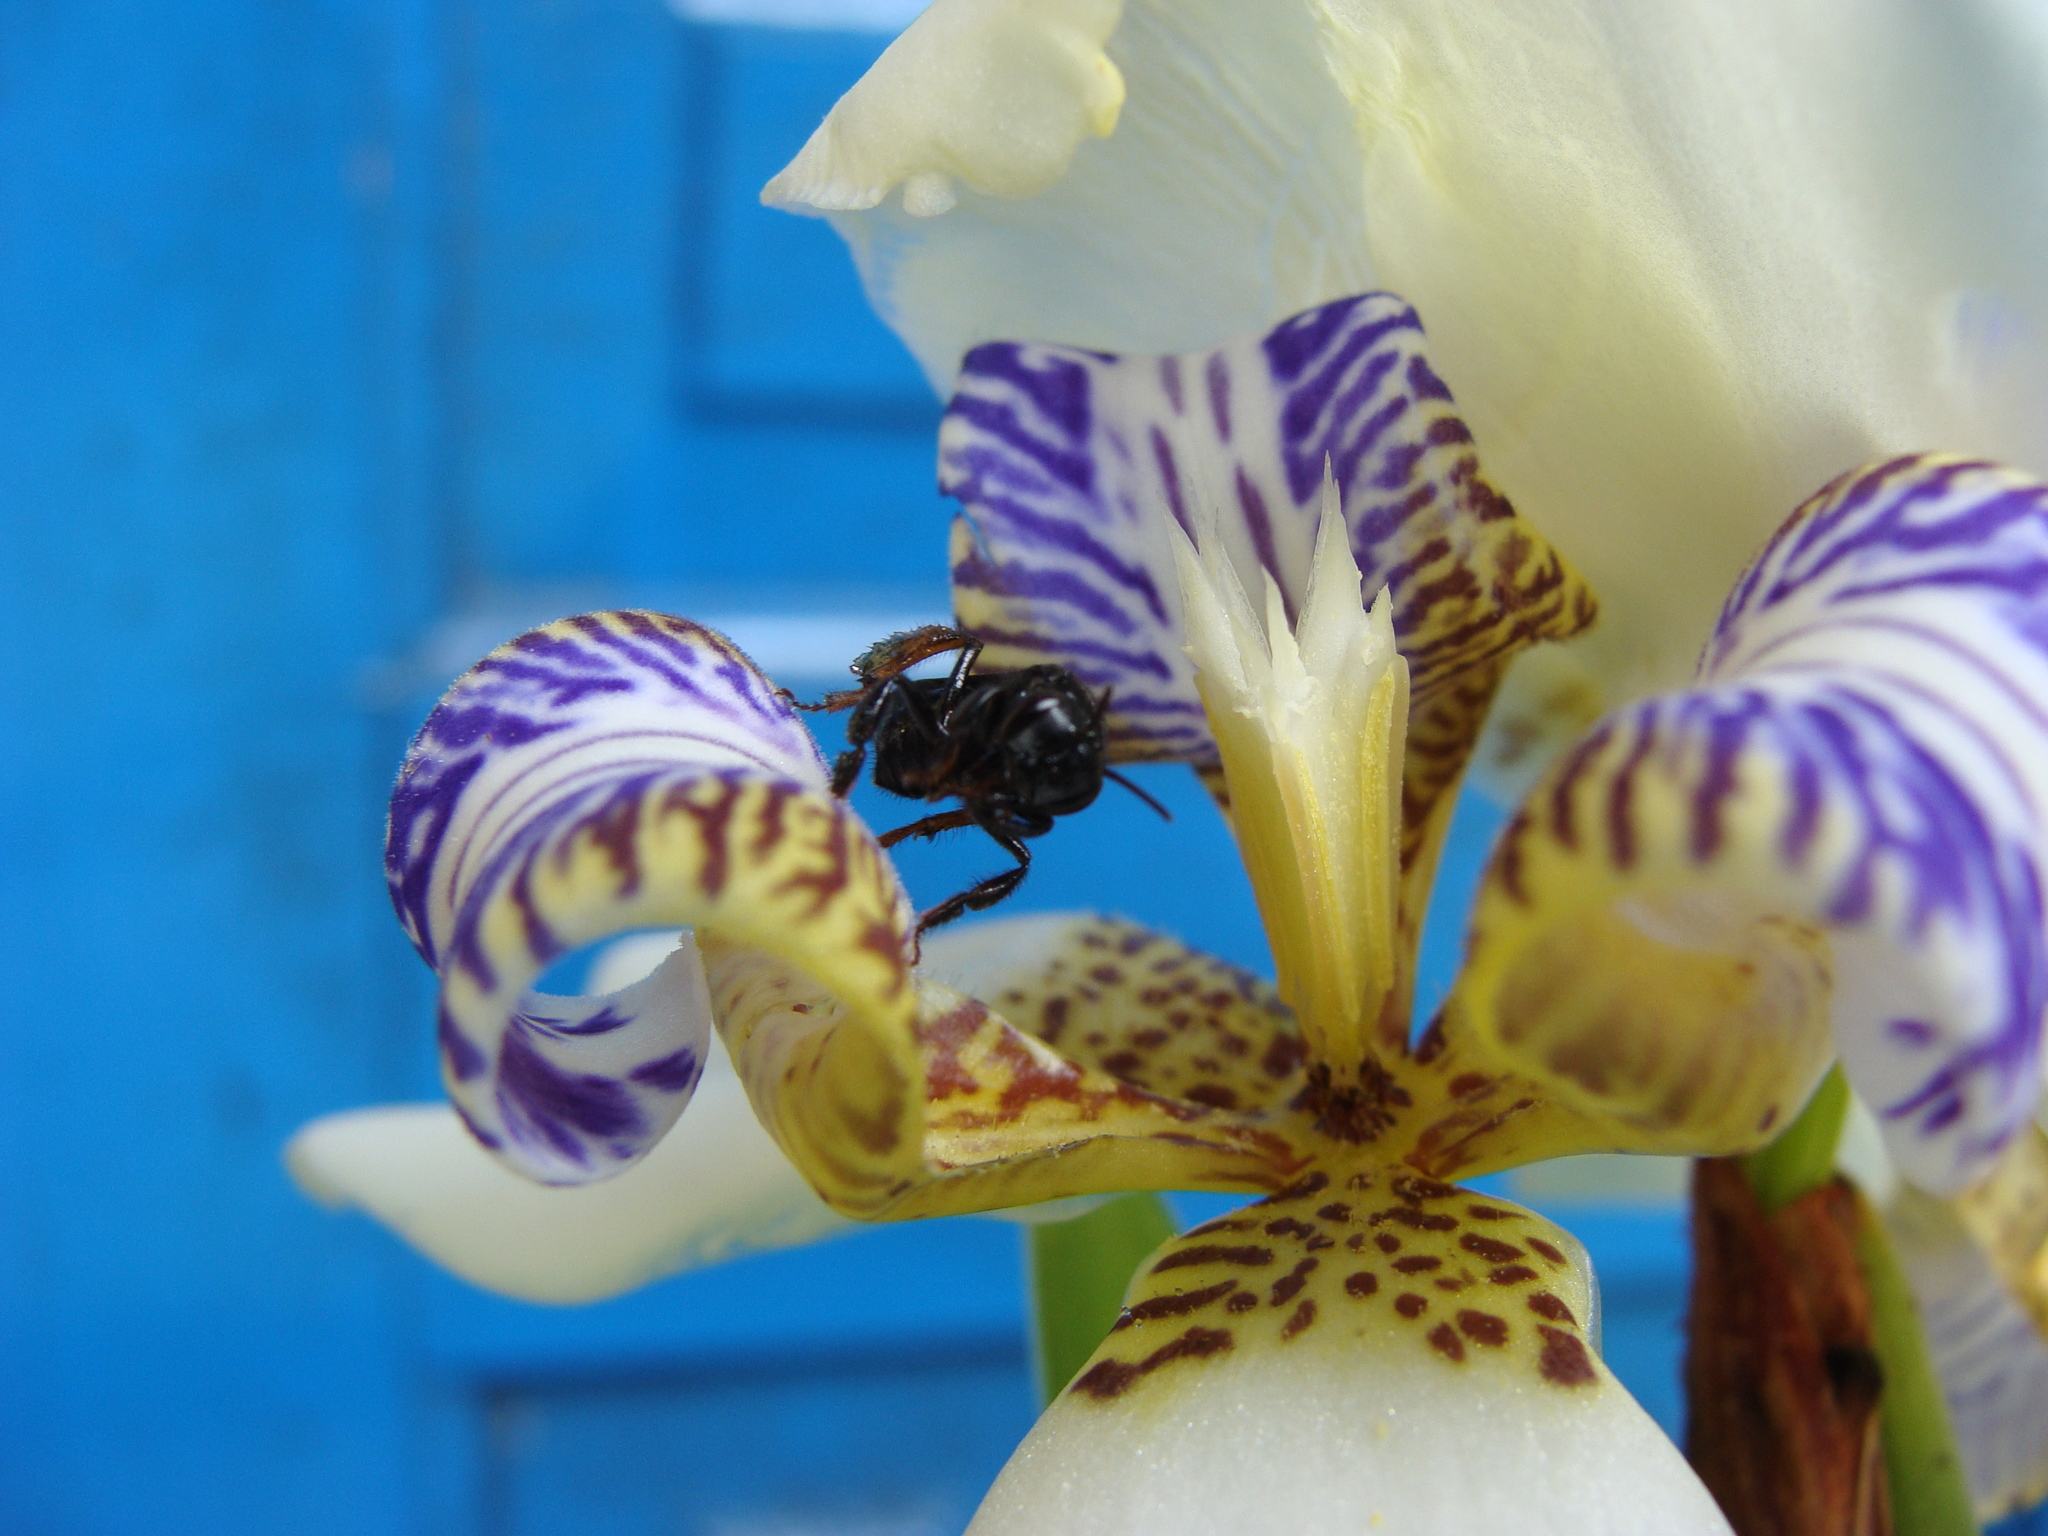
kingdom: Animalia
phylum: Arthropoda
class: Insecta
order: Hymenoptera
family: Apidae
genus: Trigona
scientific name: Trigona spinipes
